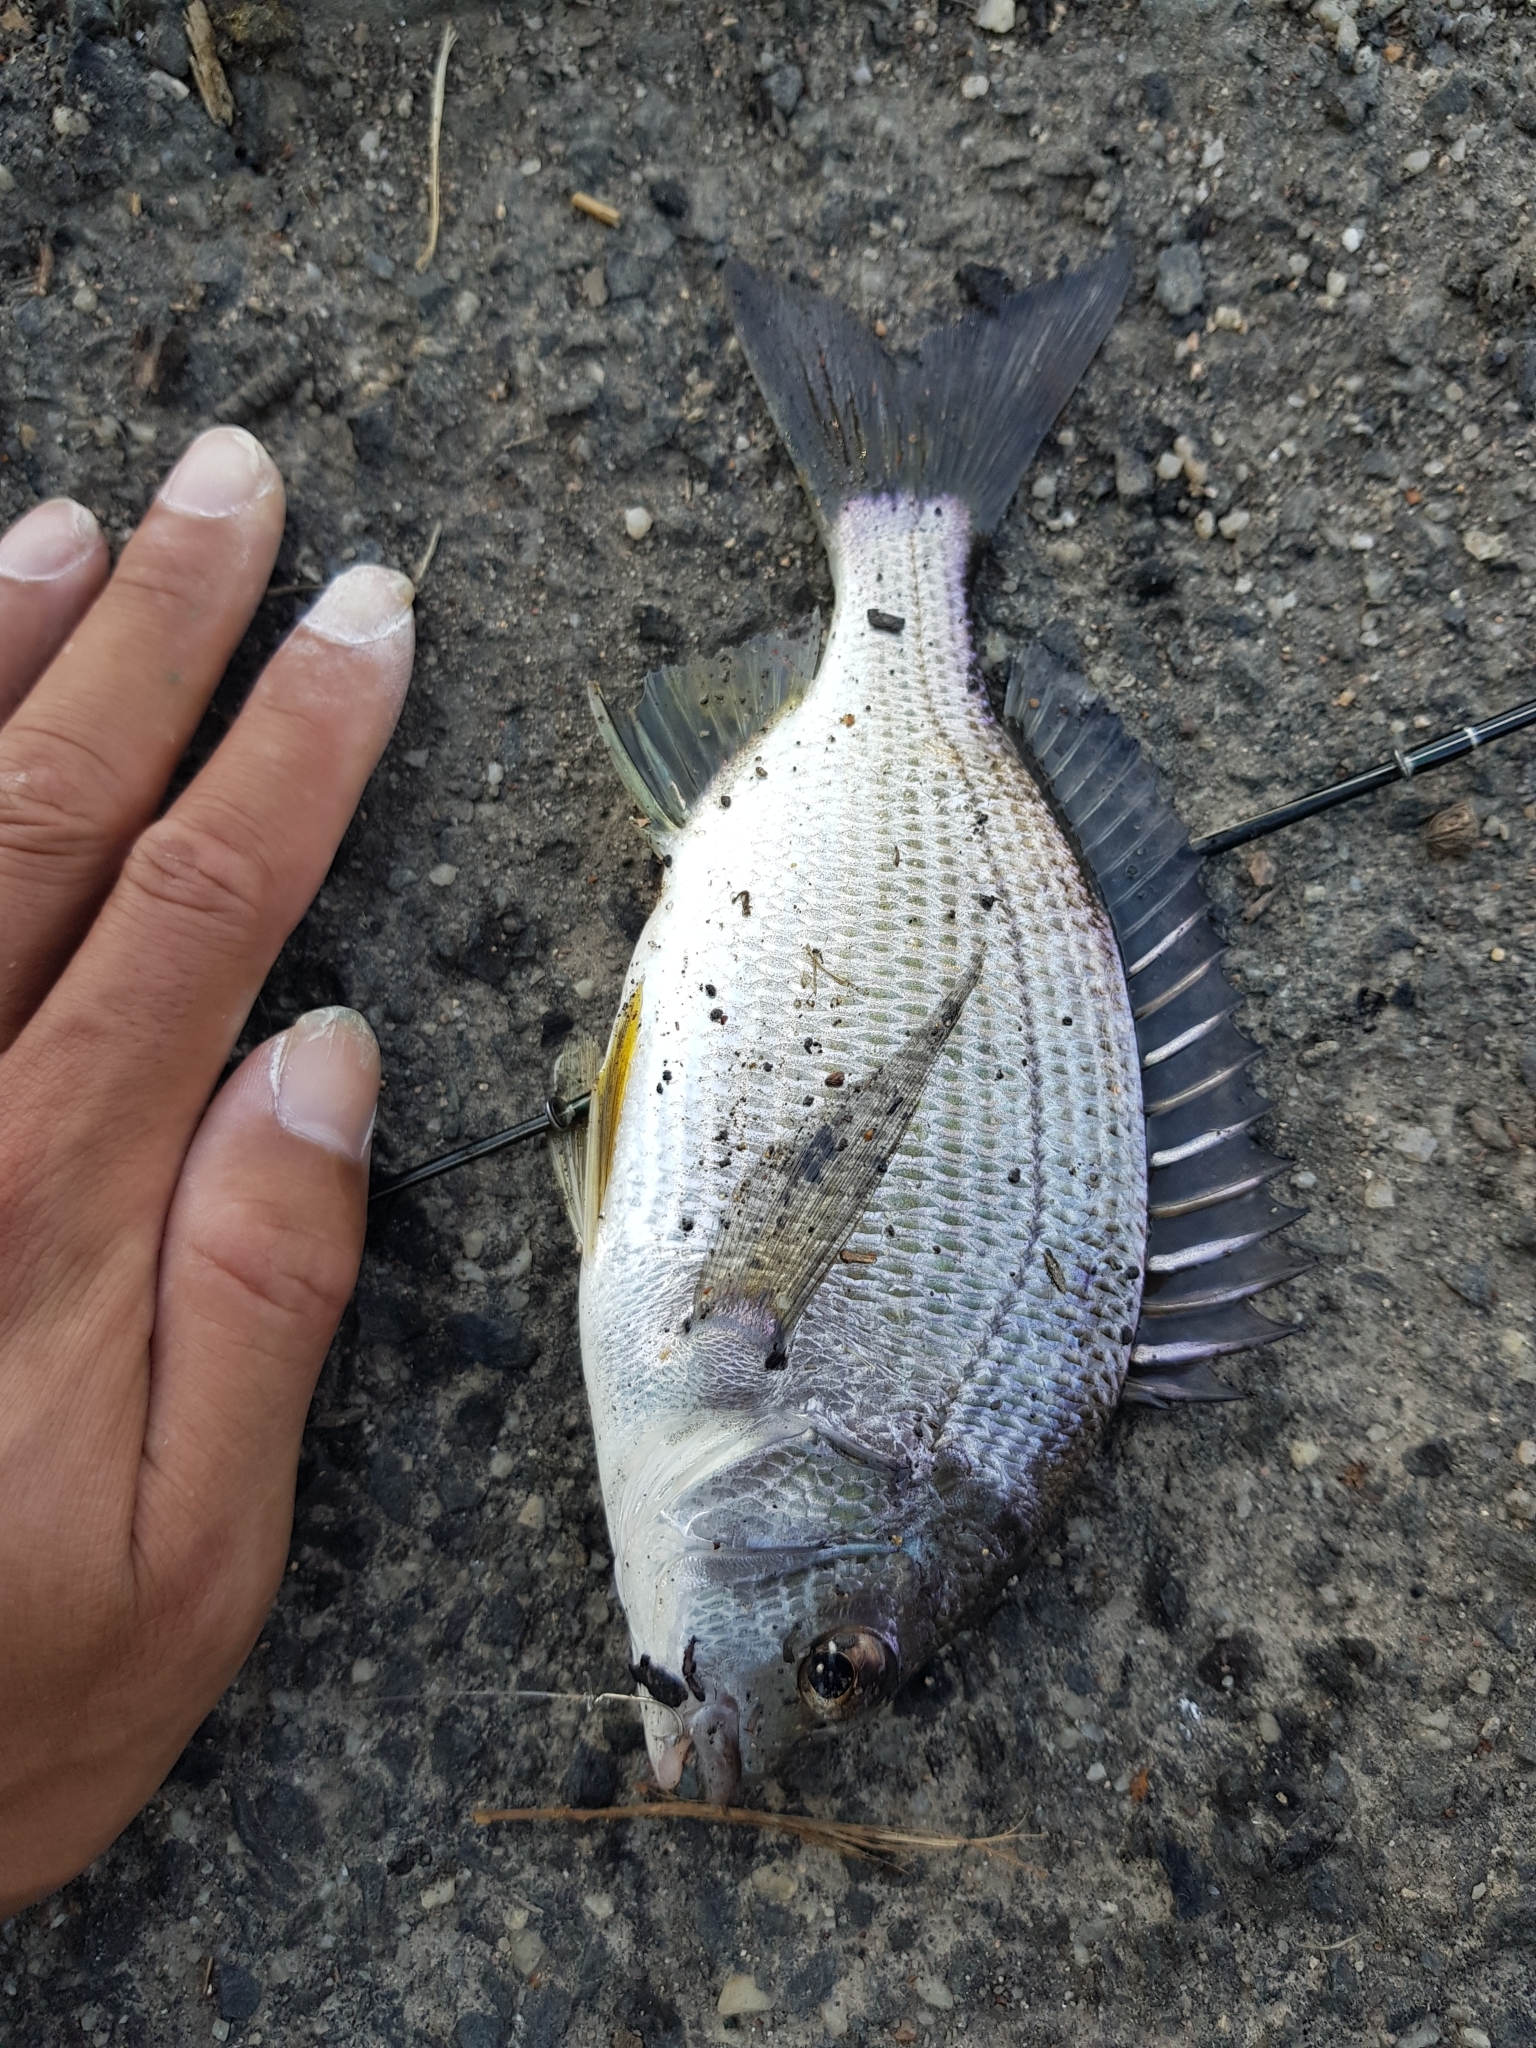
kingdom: Animalia
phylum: Chordata
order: Perciformes
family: Sparidae
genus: Acanthopagrus
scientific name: Acanthopagrus butcheri
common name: Black bream
